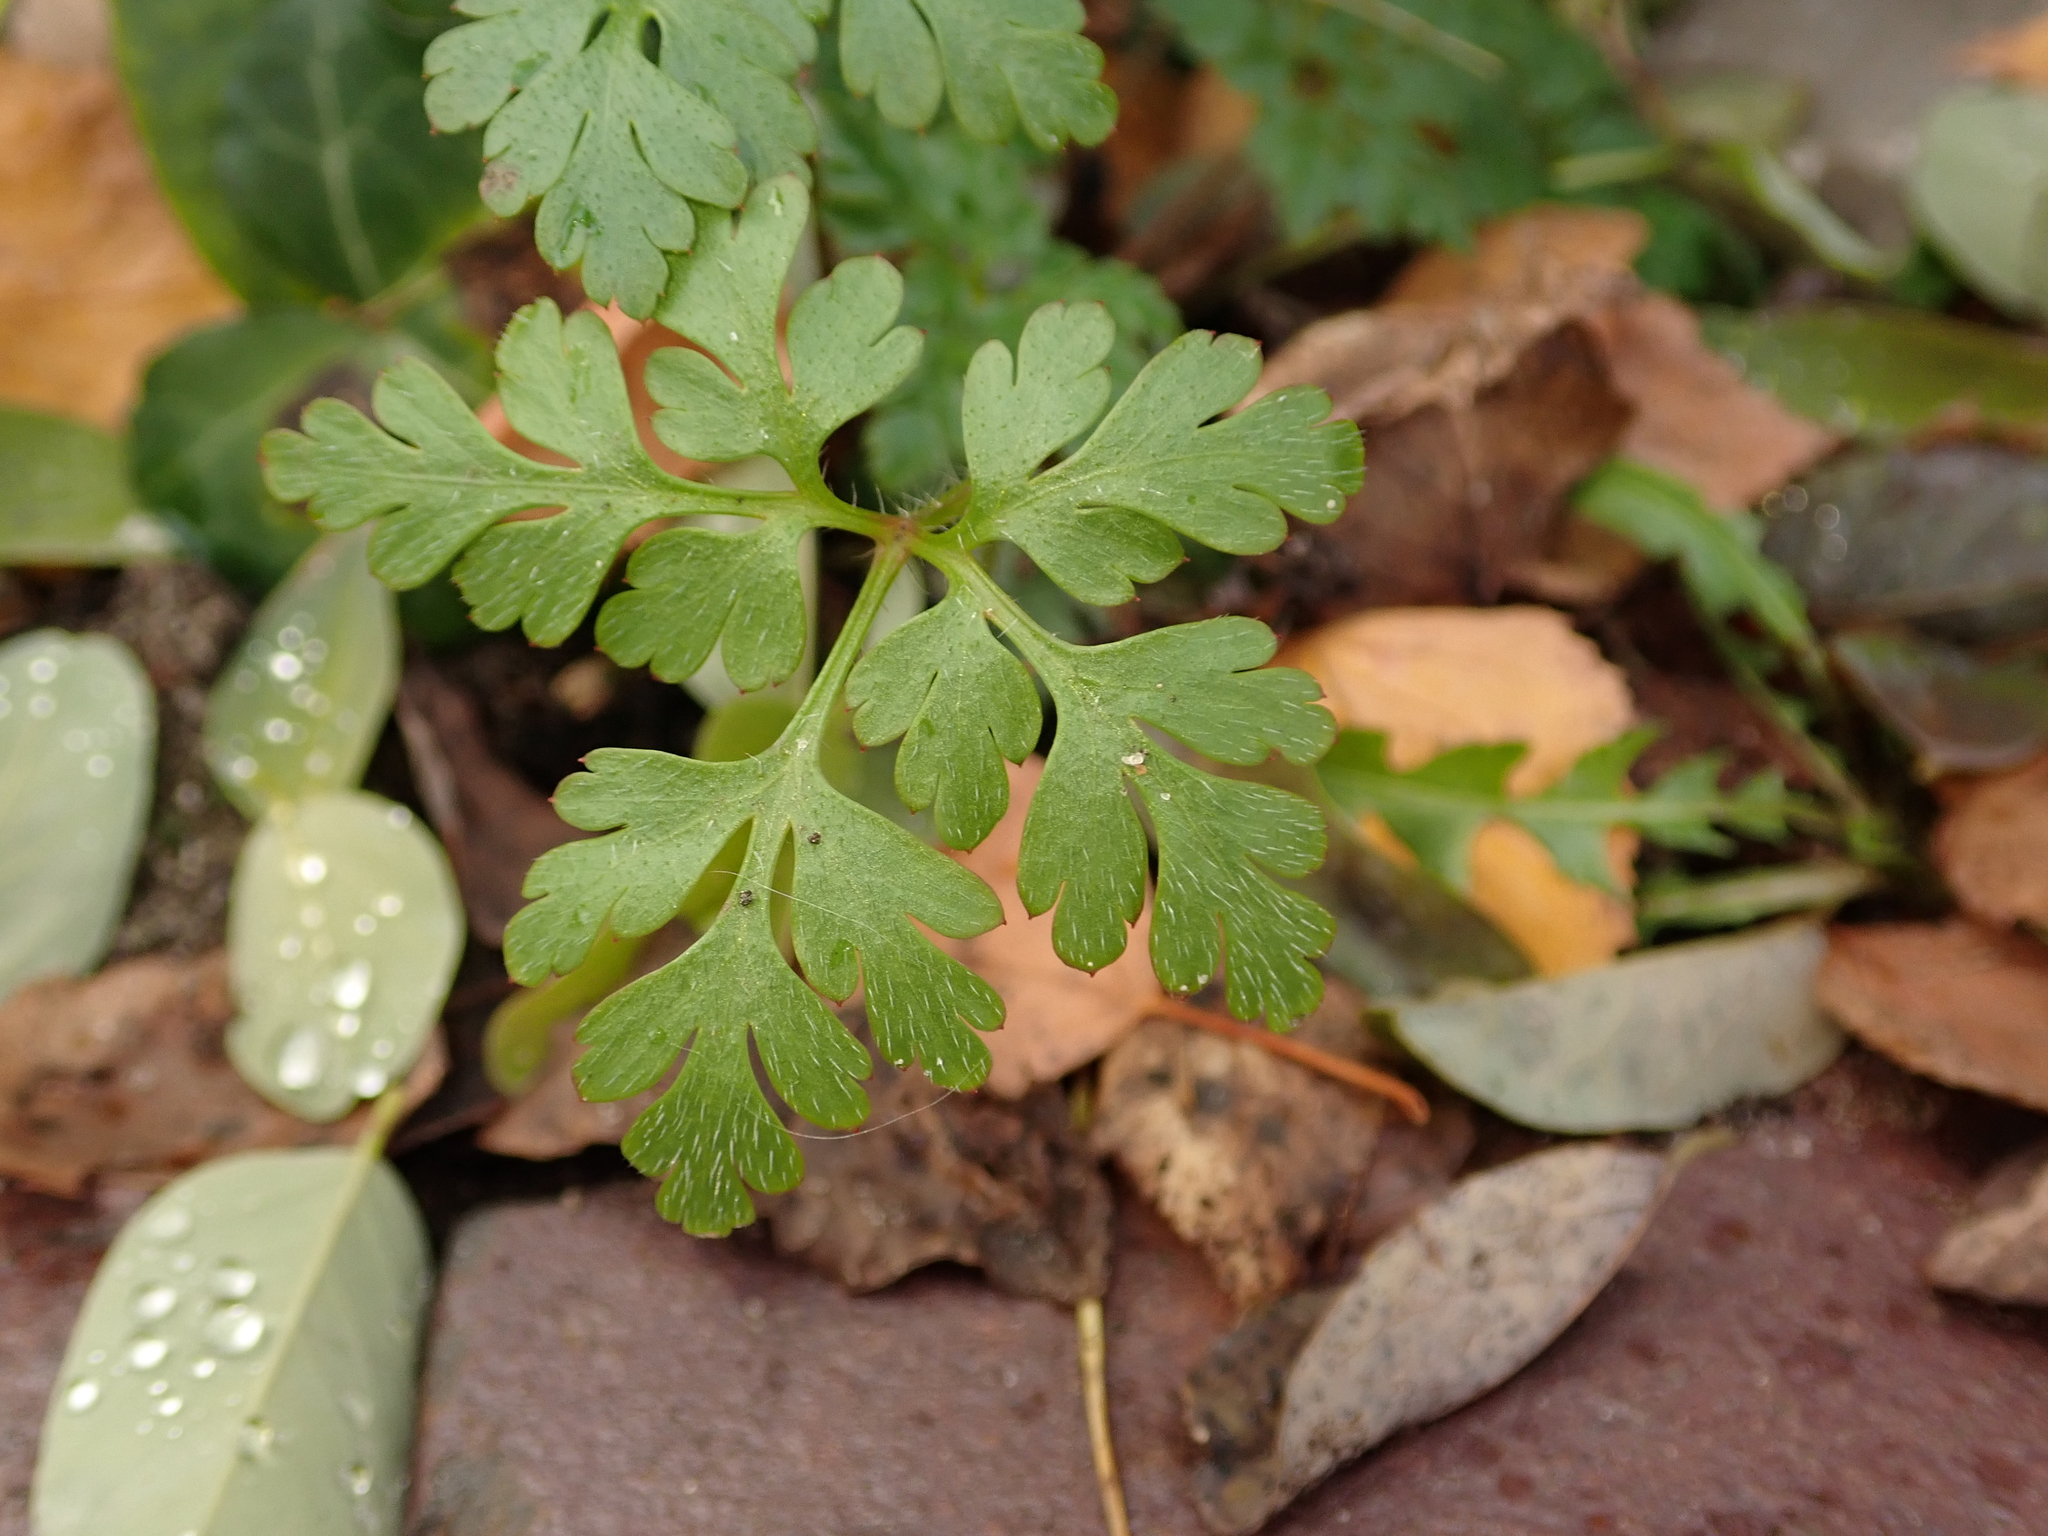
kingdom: Plantae
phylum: Tracheophyta
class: Magnoliopsida
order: Geraniales
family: Geraniaceae
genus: Geranium
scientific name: Geranium robertianum
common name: Herb-robert
